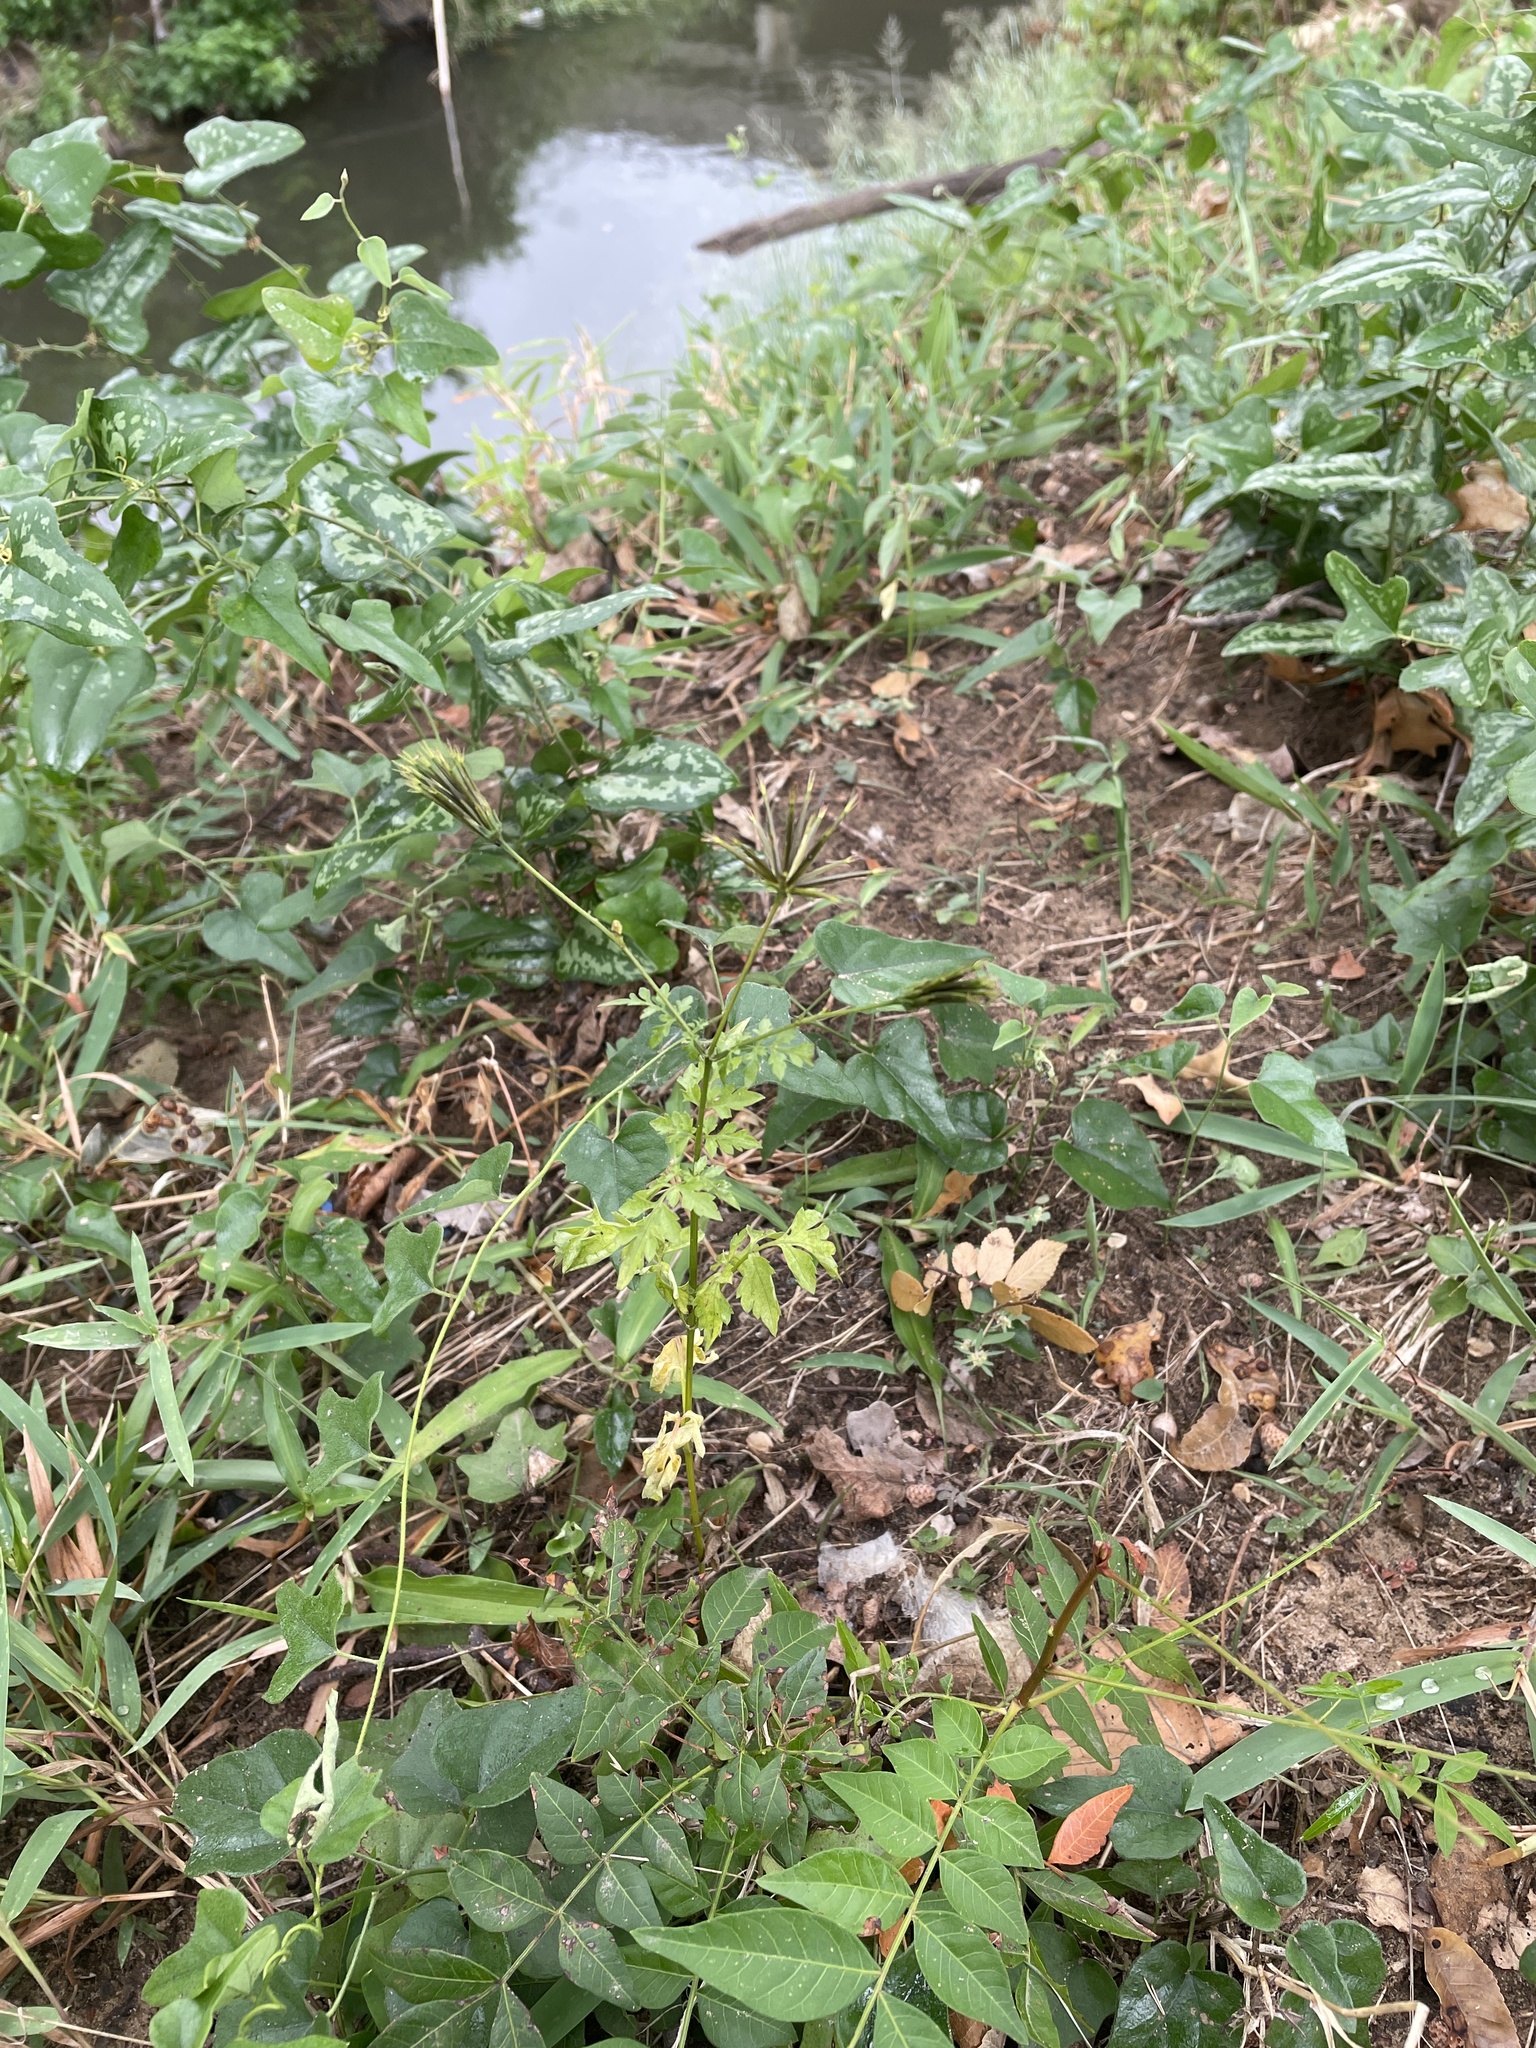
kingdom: Plantae
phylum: Tracheophyta
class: Magnoliopsida
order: Asterales
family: Asteraceae
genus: Bidens
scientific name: Bidens bipinnata
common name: Spanish-needles
